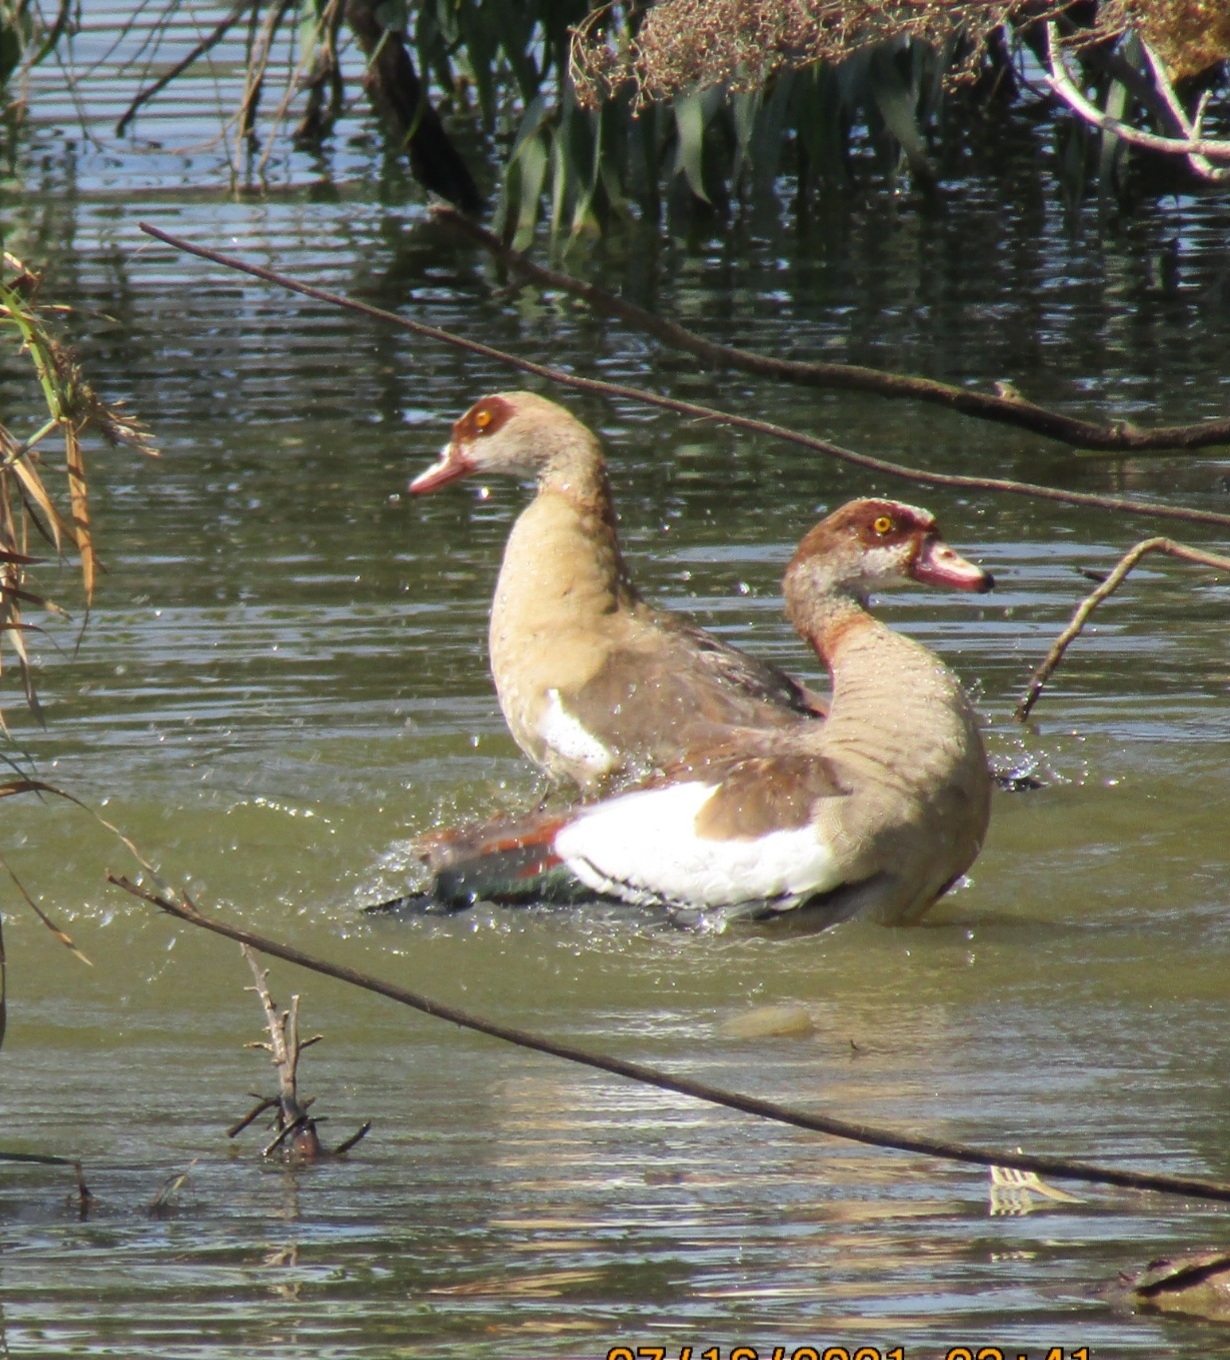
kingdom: Animalia
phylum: Chordata
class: Aves
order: Anseriformes
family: Anatidae
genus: Alopochen
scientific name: Alopochen aegyptiaca
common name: Egyptian goose
